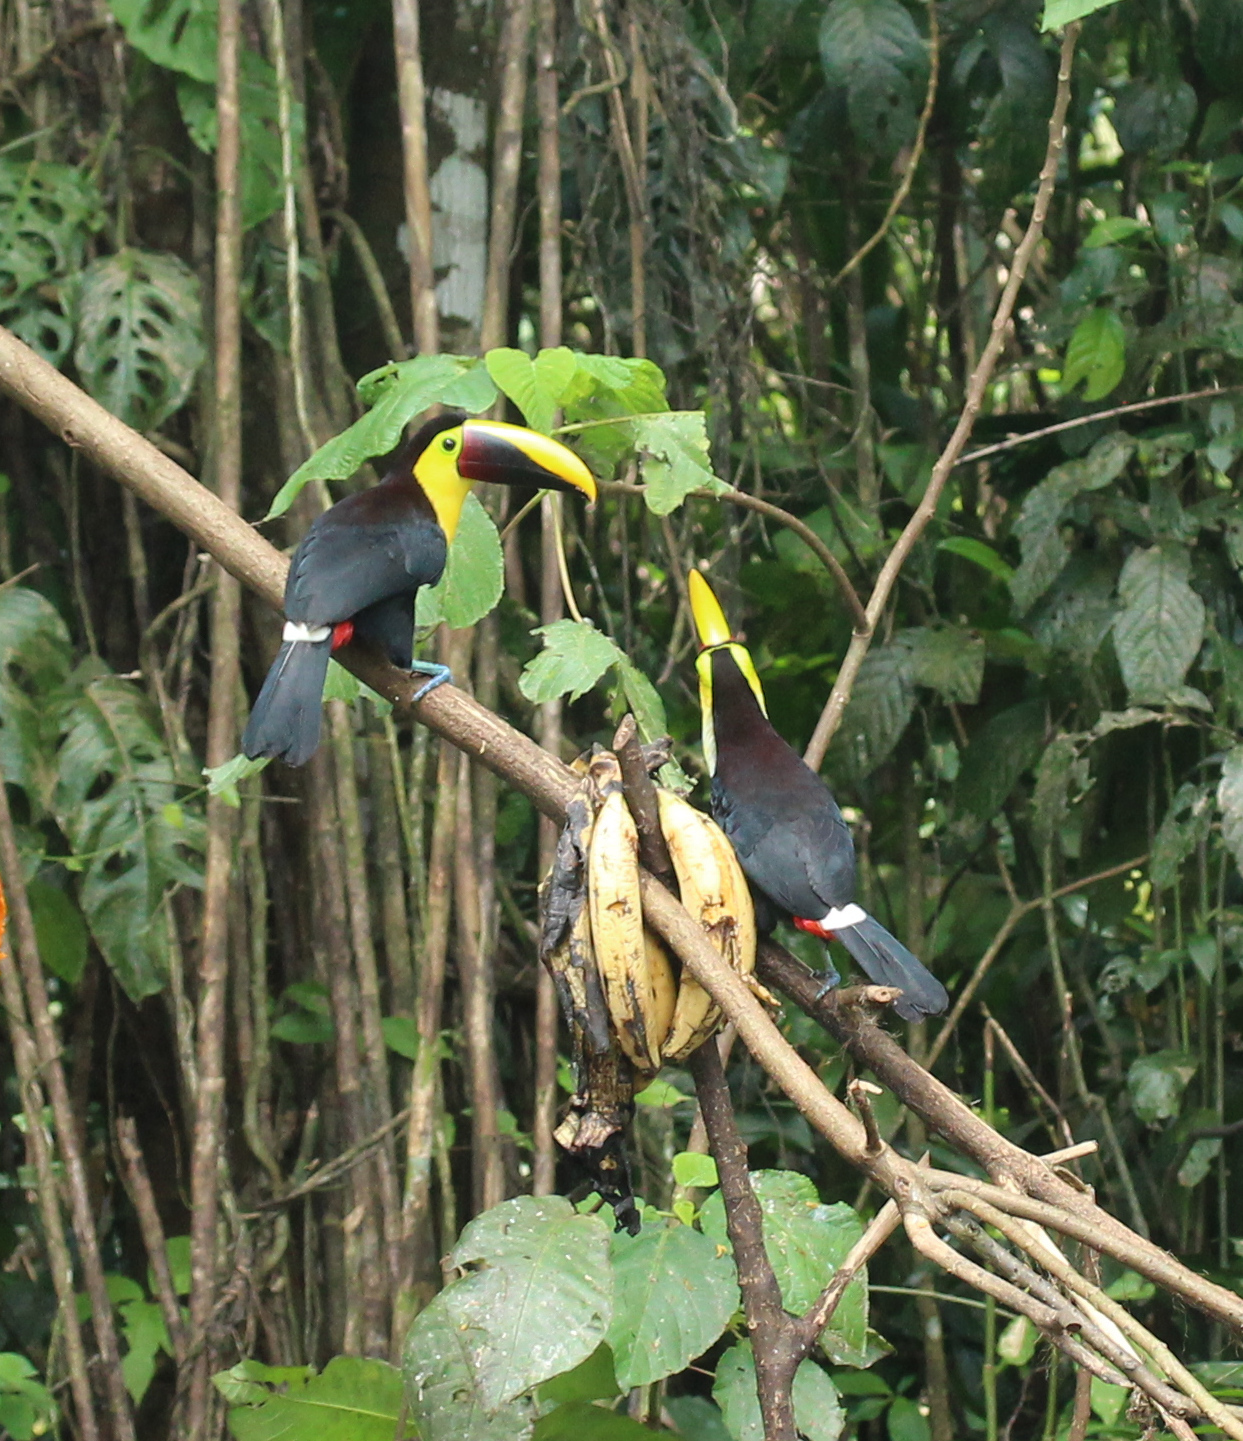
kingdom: Animalia
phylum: Chordata
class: Aves
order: Piciformes
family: Ramphastidae
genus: Ramphastos
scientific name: Ramphastos ambiguus
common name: Yellow-throated toucan
